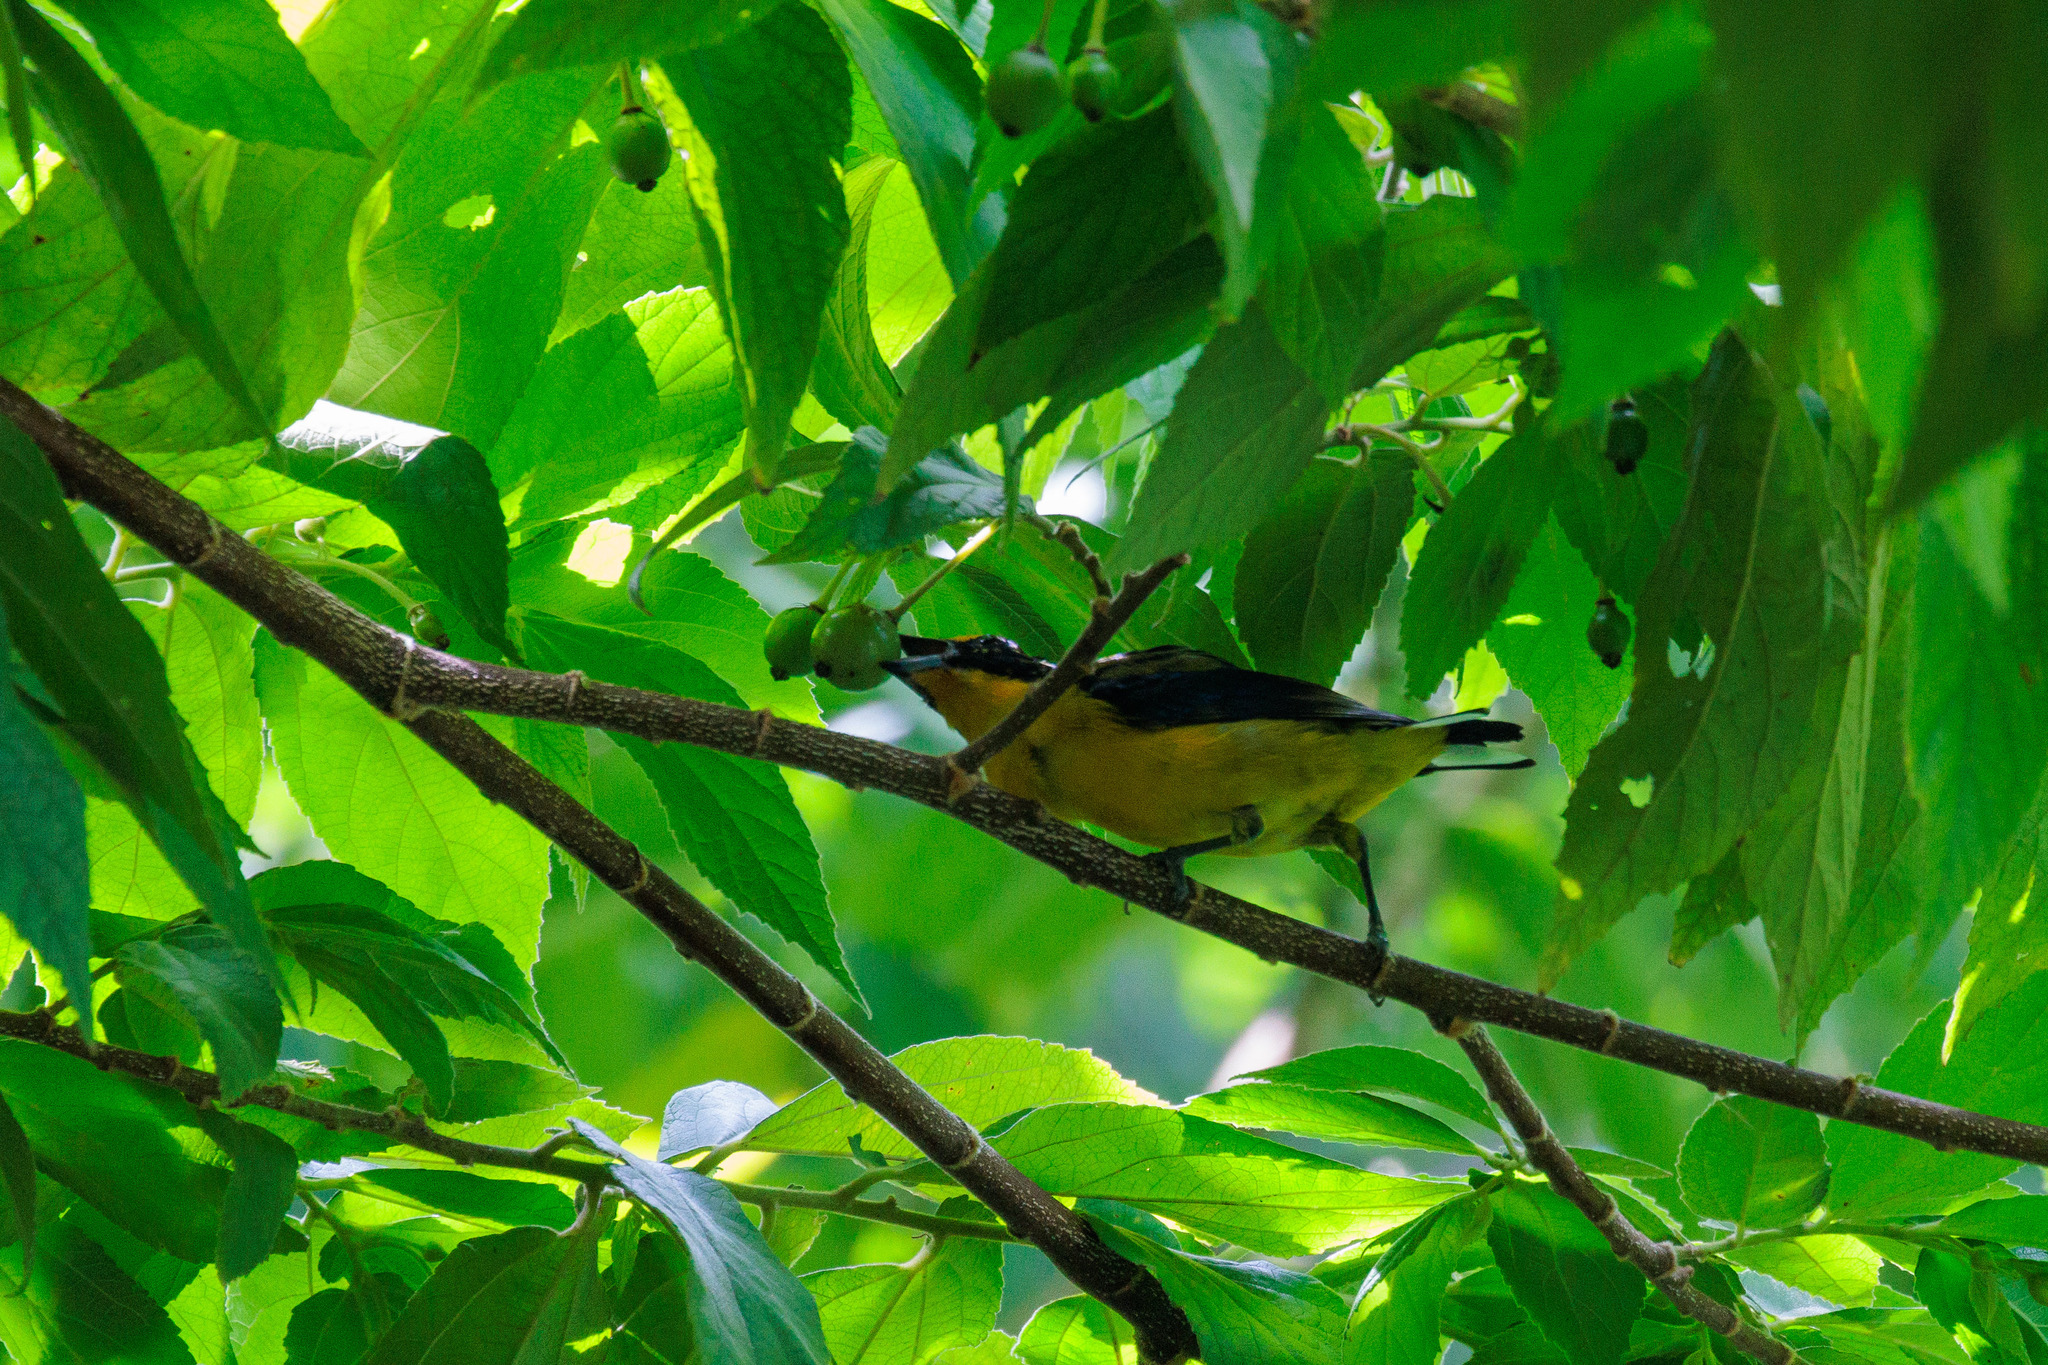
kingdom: Animalia
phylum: Chordata
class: Aves
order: Passeriformes
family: Fringillidae
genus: Euphonia
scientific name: Euphonia violacea
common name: Violaceous euphonia
